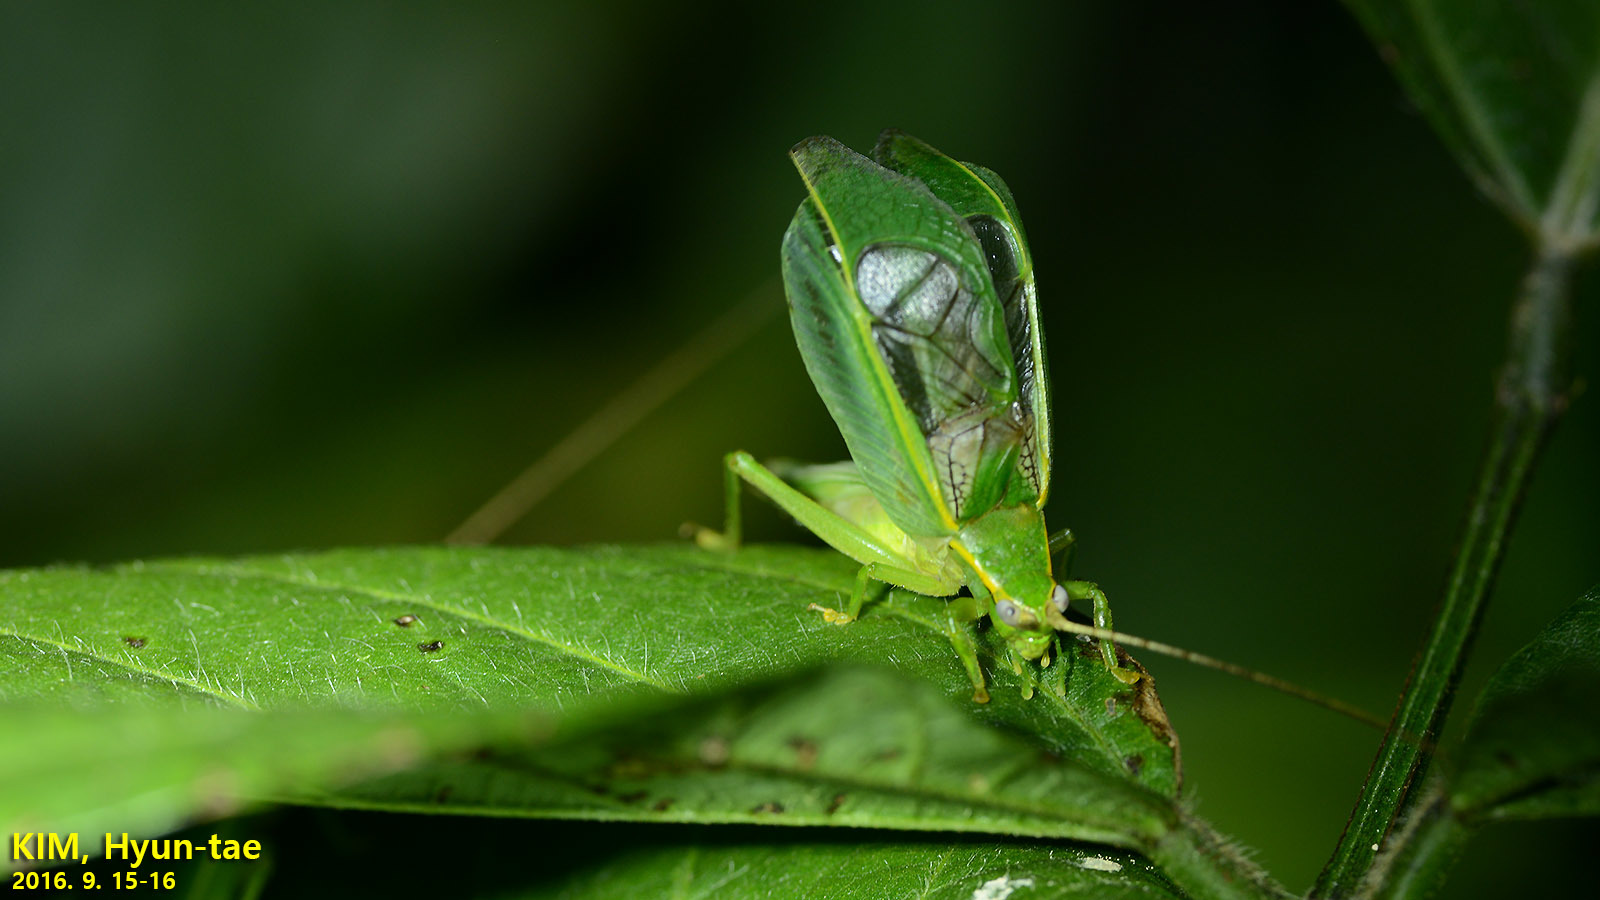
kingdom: Animalia
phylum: Arthropoda
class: Insecta
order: Orthoptera
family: Gryllidae
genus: Truljalia
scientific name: Truljalia hibinonis
